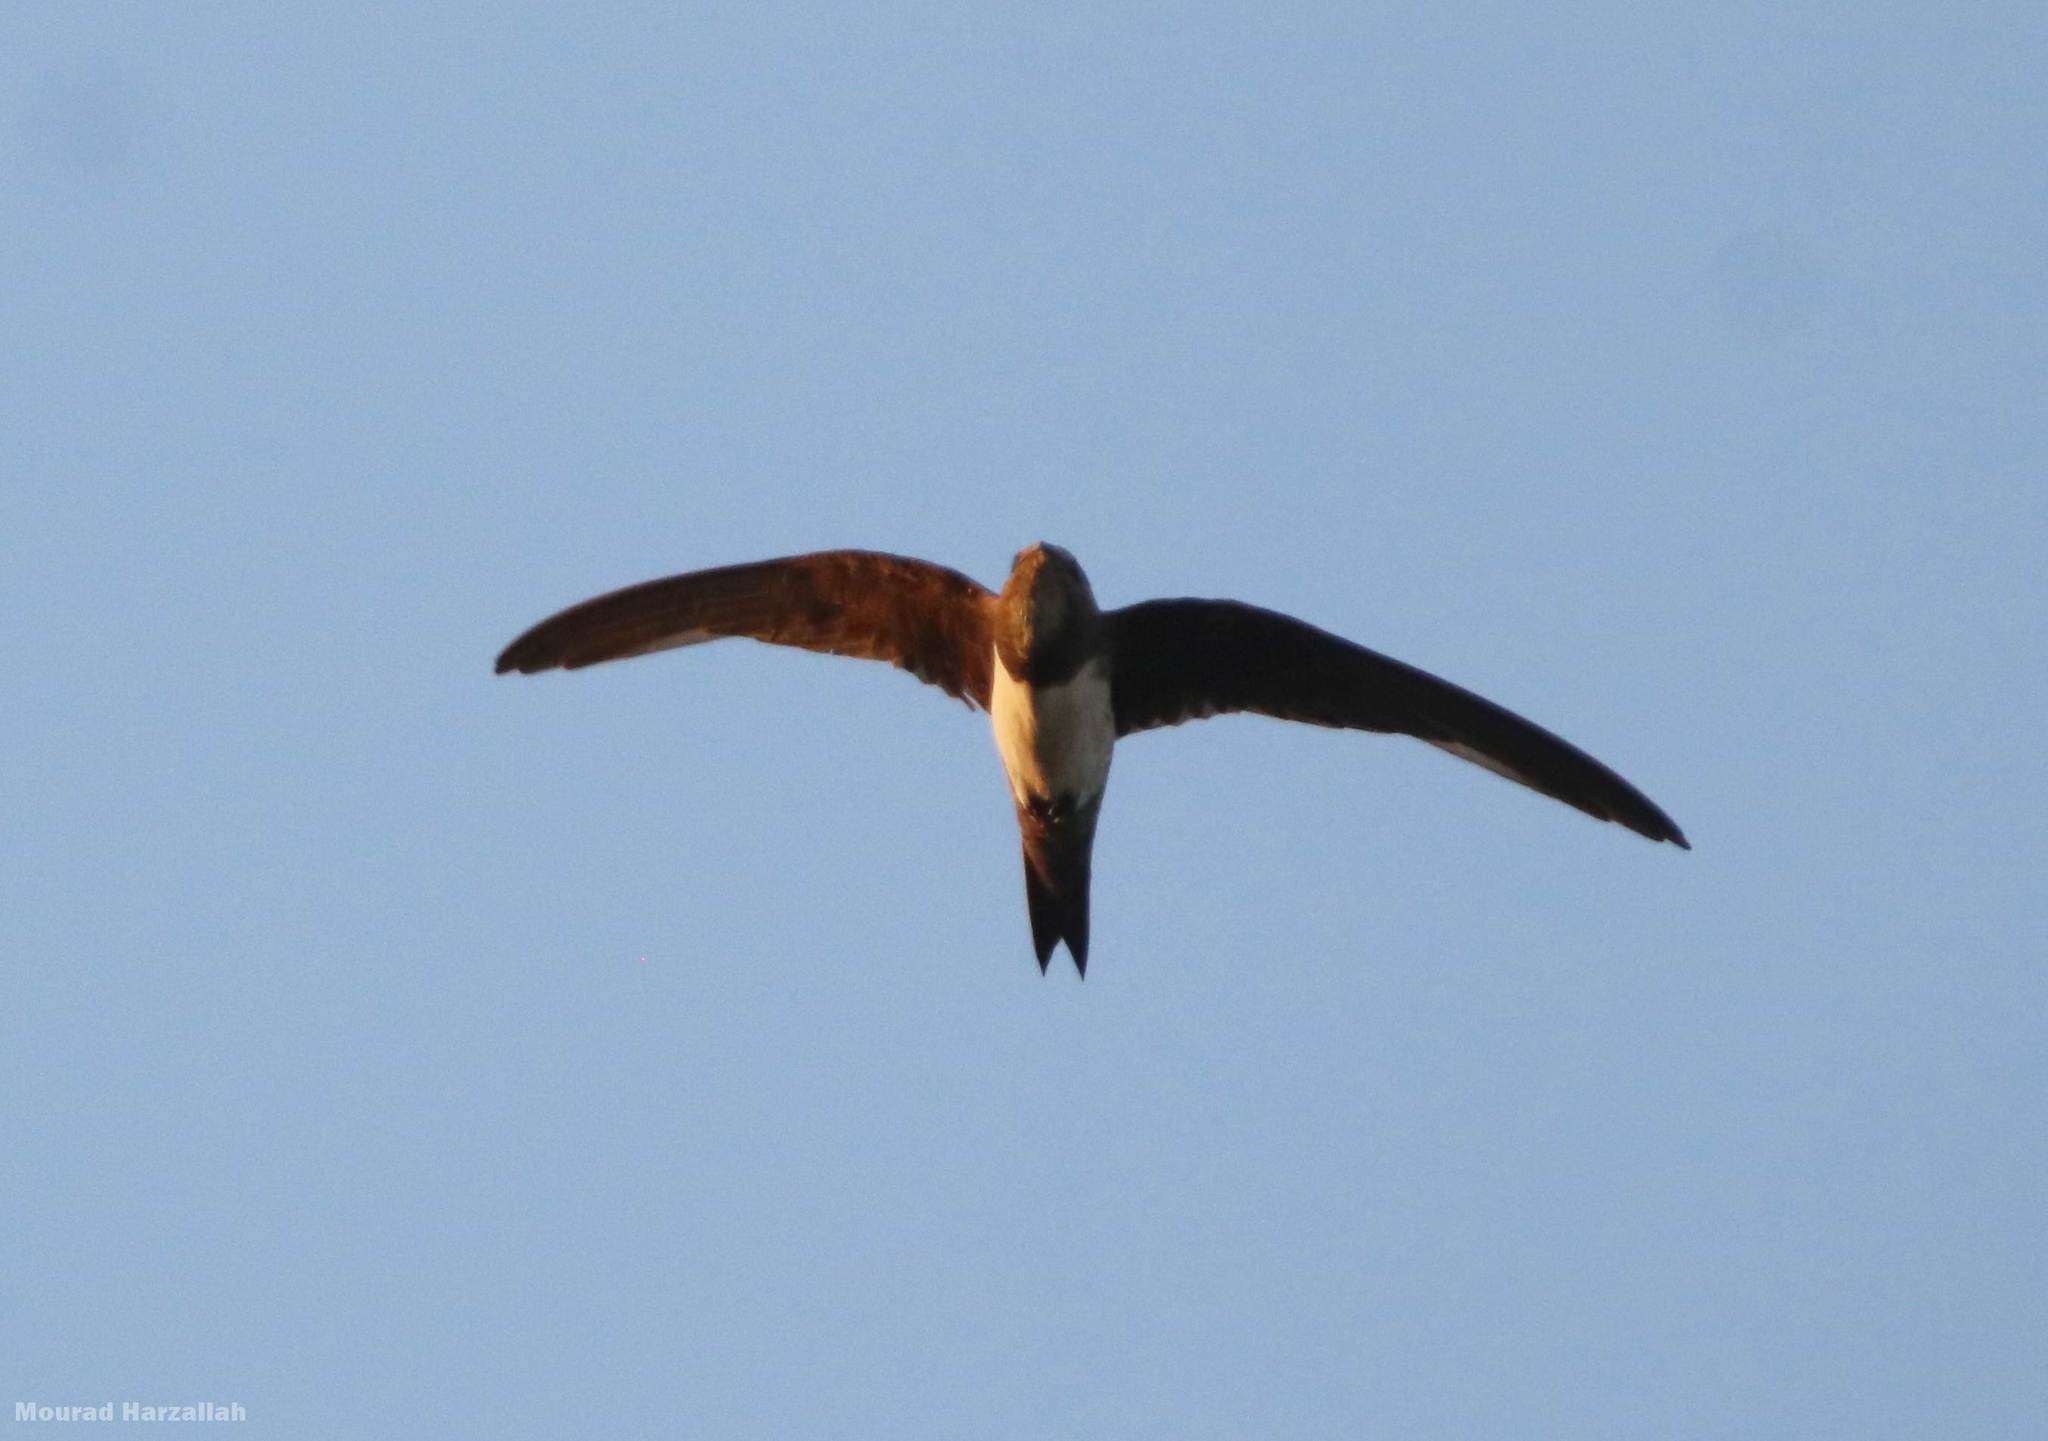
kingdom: Animalia
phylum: Chordata
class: Aves
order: Apodiformes
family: Apodidae
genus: Tachymarptis
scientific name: Tachymarptis melba
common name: Alpine swift
